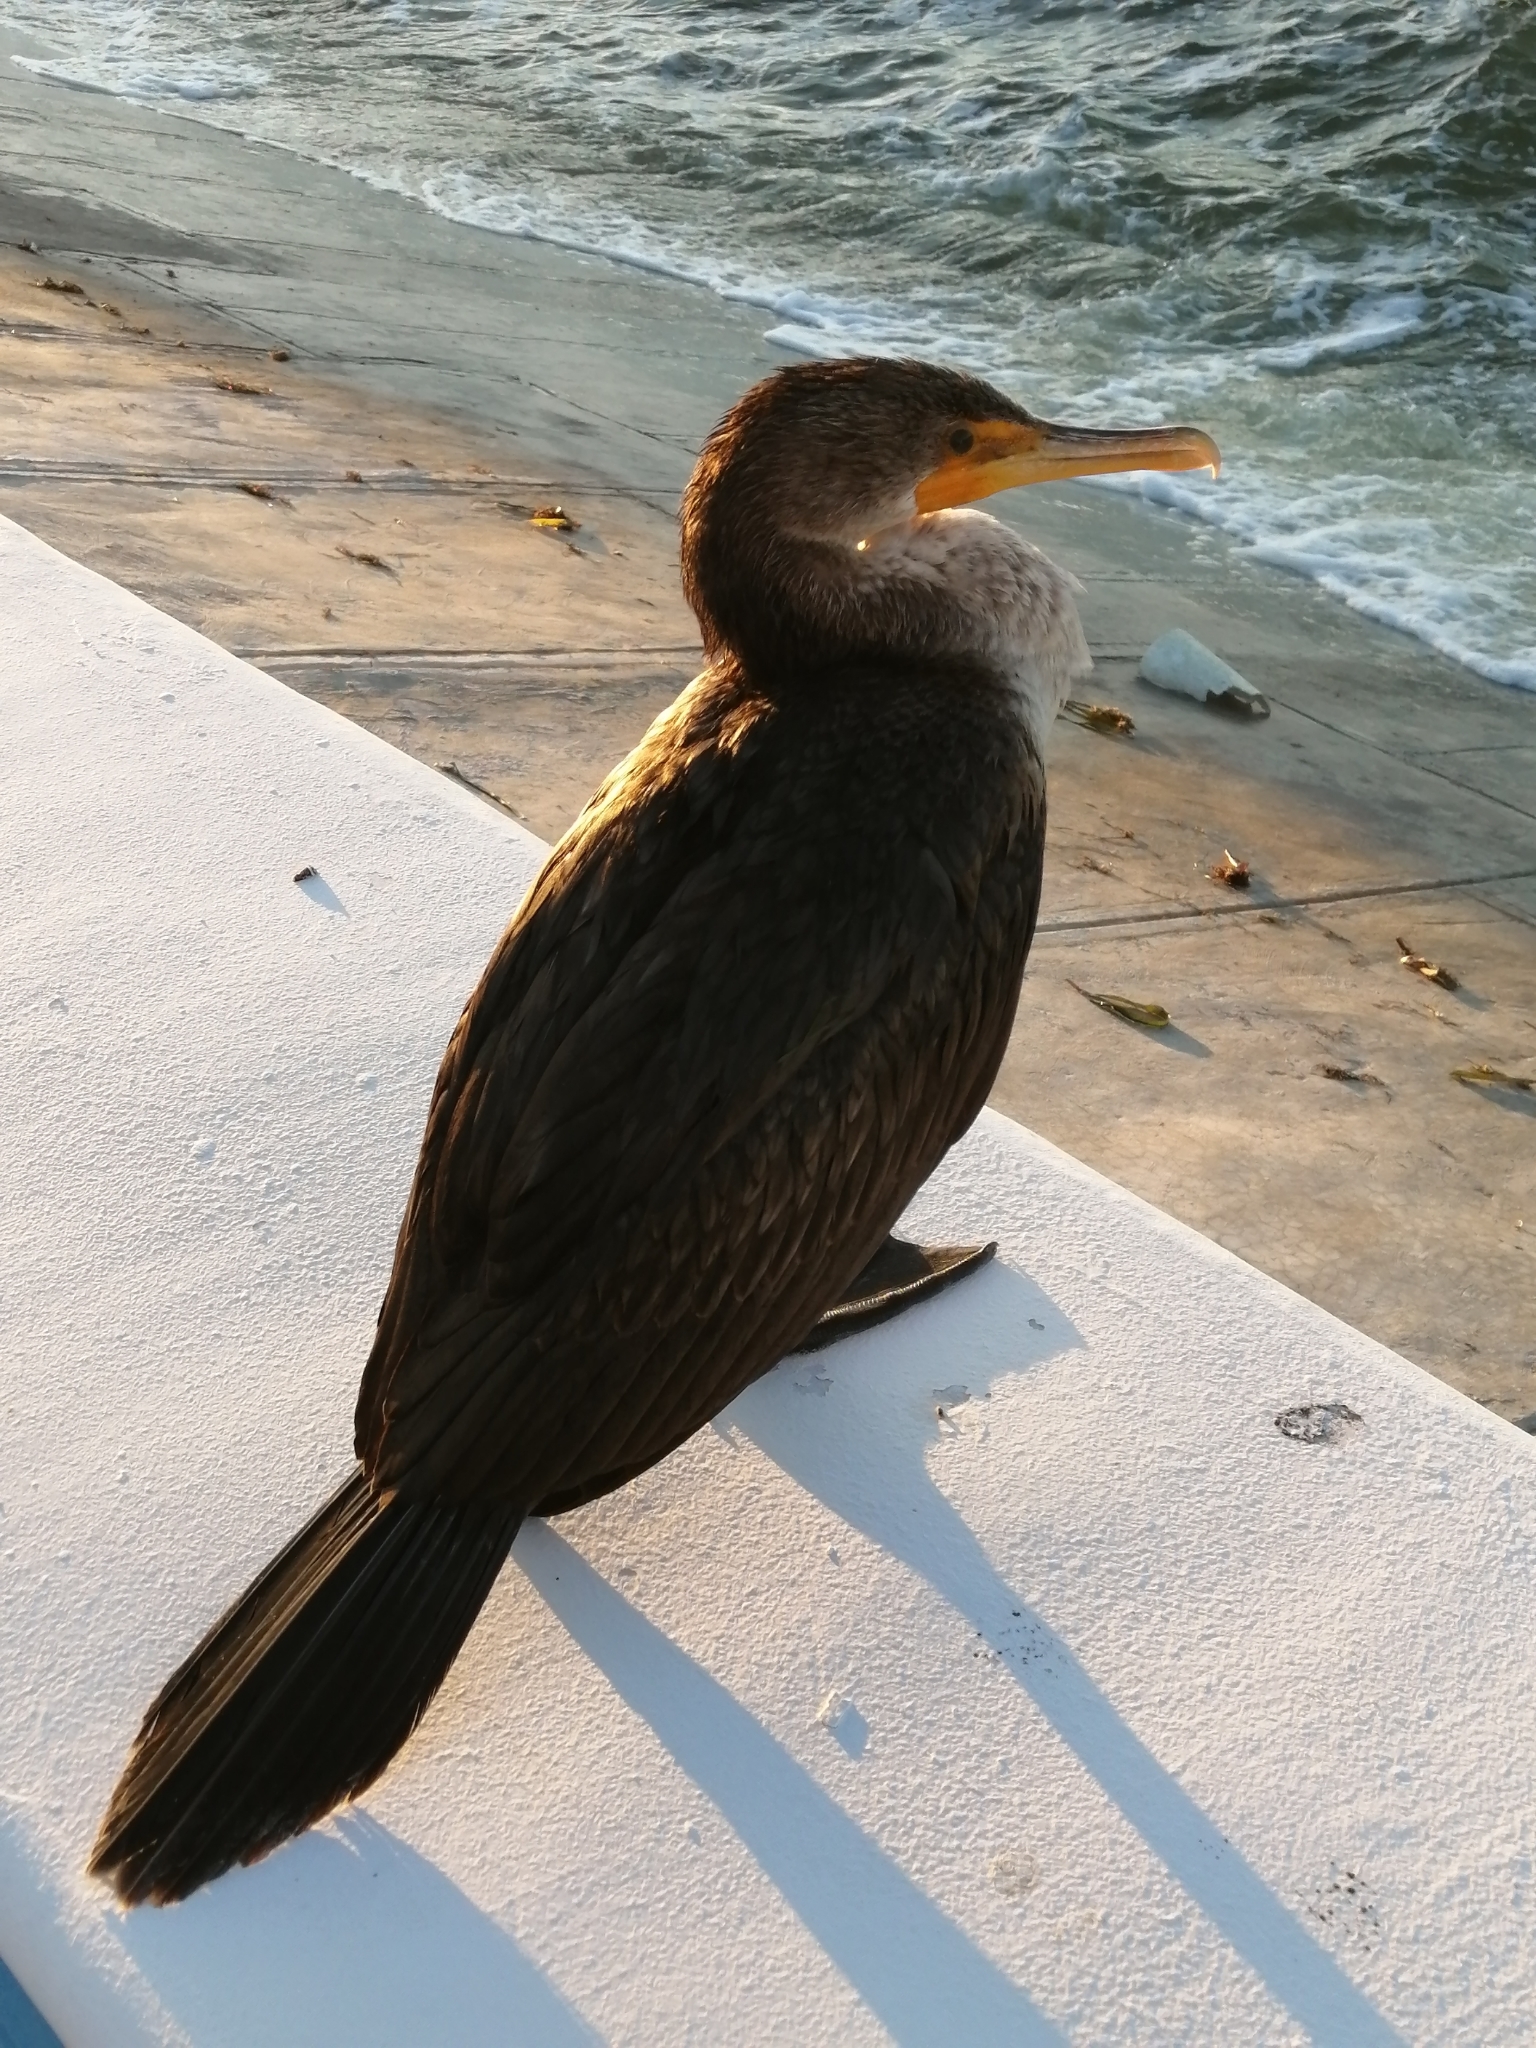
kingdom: Animalia
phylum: Chordata
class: Aves
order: Suliformes
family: Phalacrocoracidae
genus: Phalacrocorax
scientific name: Phalacrocorax auritus
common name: Double-crested cormorant
